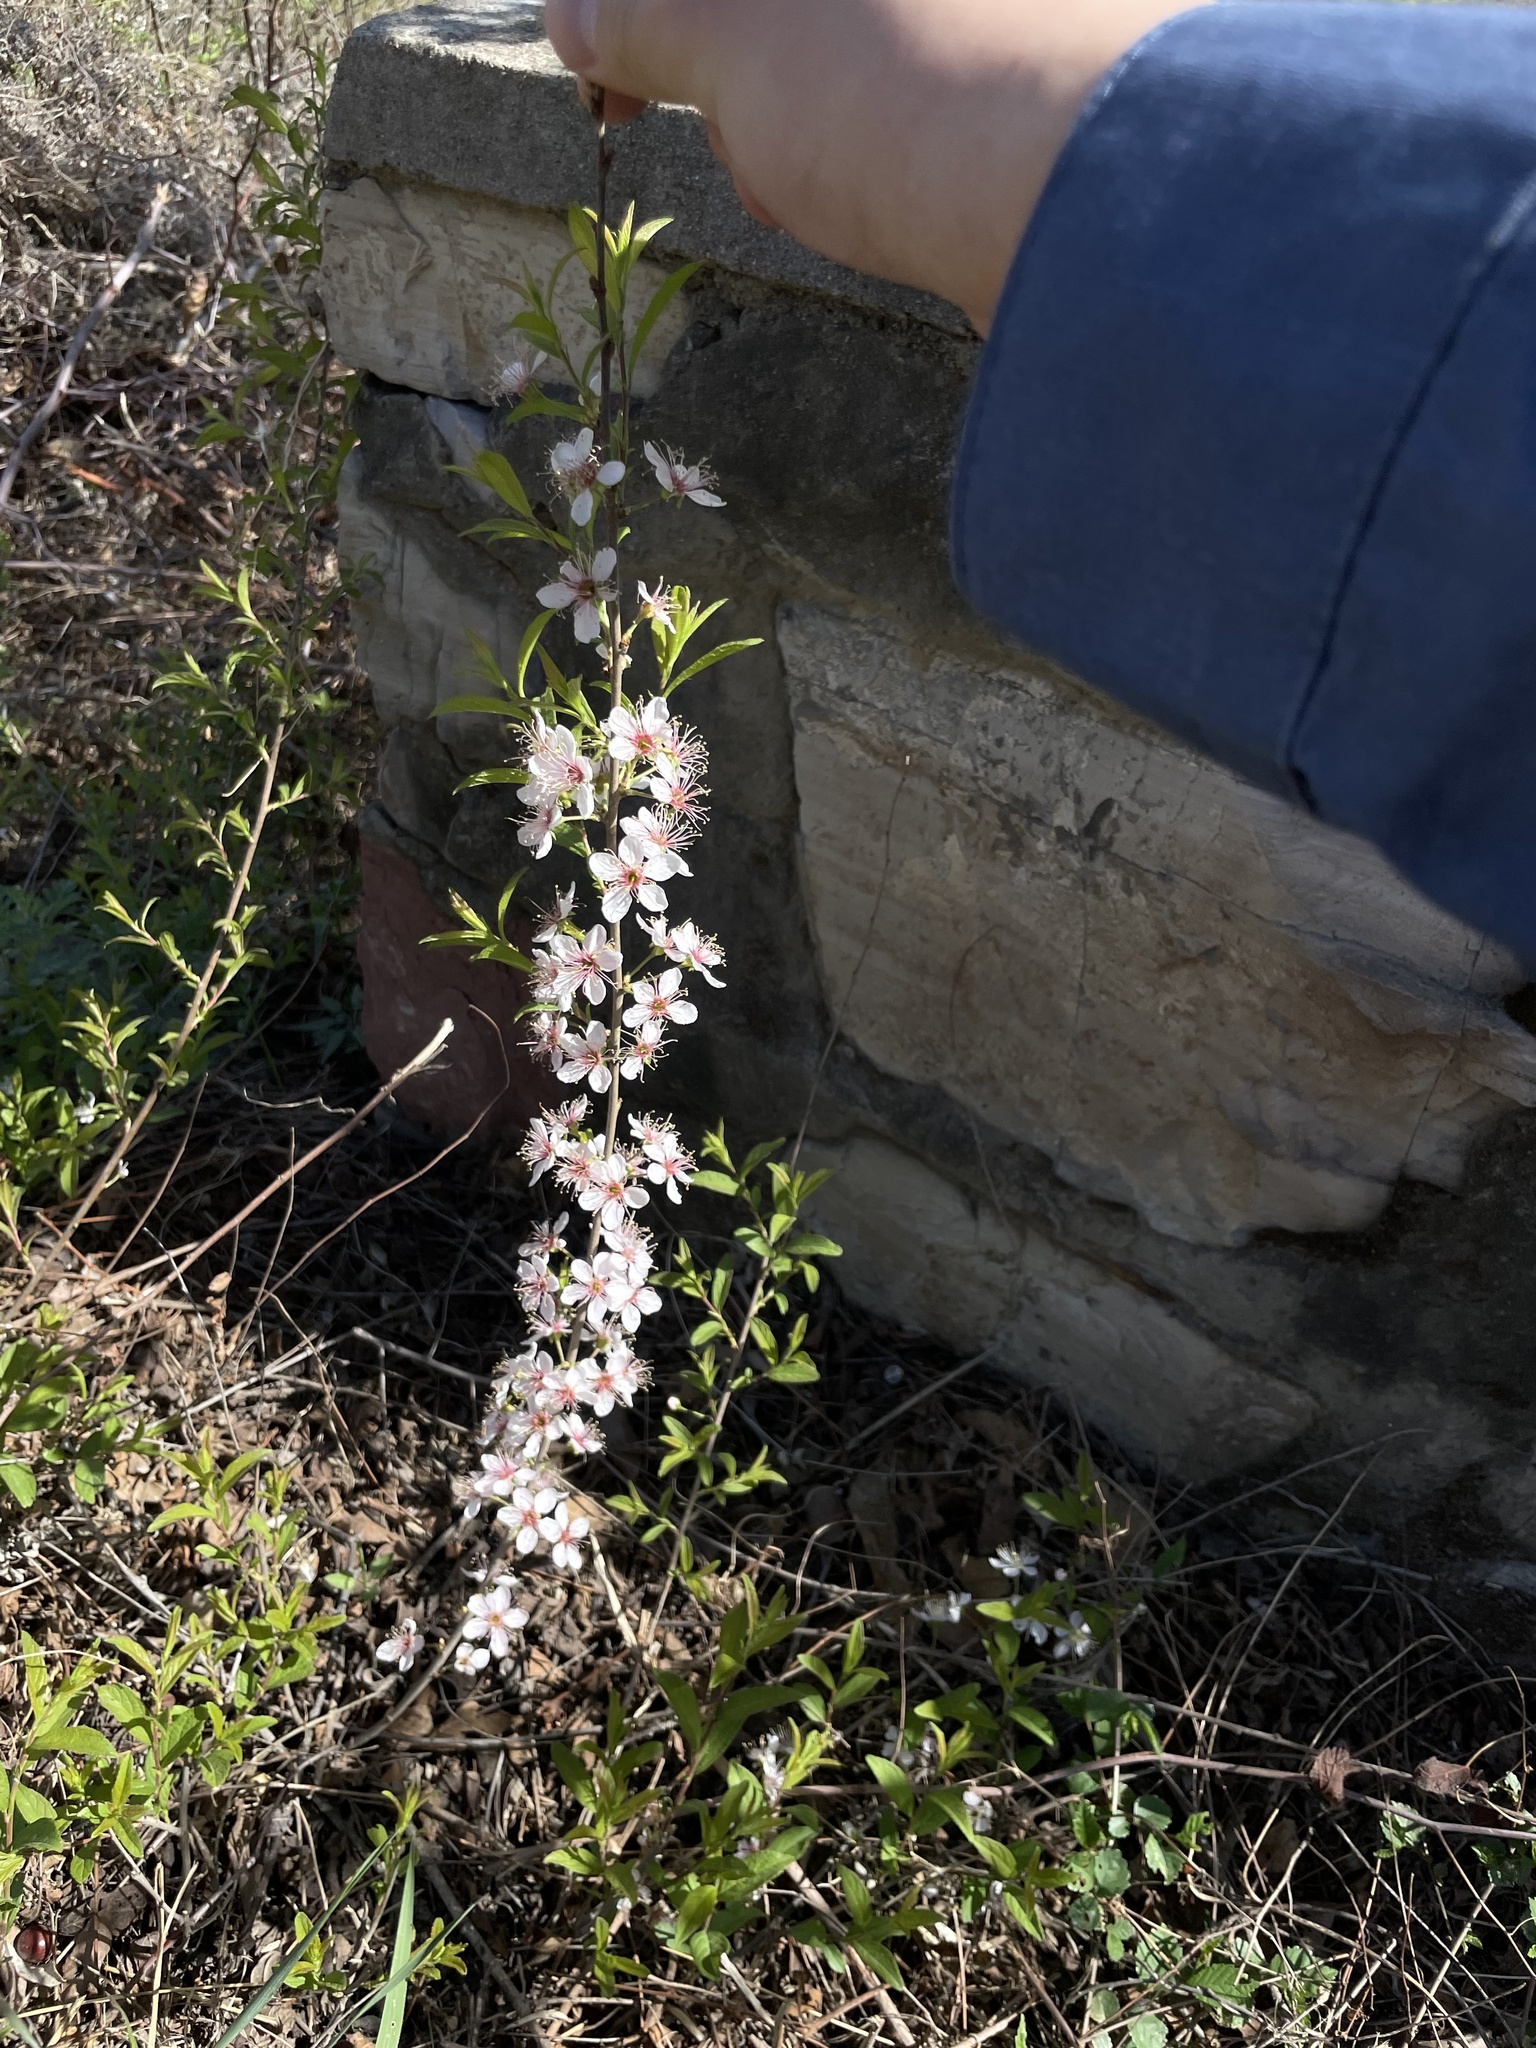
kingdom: Plantae
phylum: Tracheophyta
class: Magnoliopsida
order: Rosales
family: Rosaceae
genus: Prunus
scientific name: Prunus humilis
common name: Humble bush cherry
